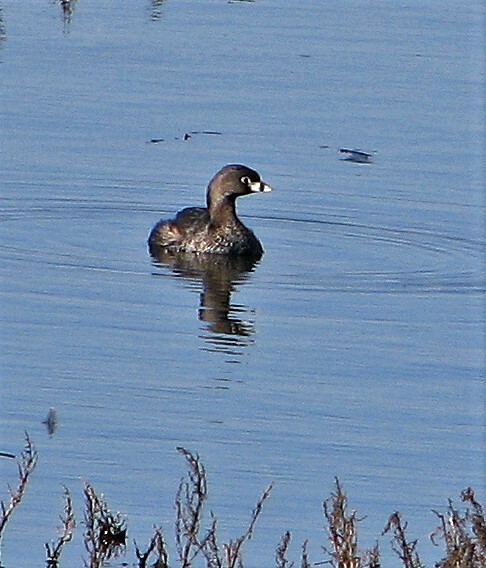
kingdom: Animalia
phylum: Chordata
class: Aves
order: Podicipediformes
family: Podicipedidae
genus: Podilymbus
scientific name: Podilymbus podiceps
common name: Pied-billed grebe
